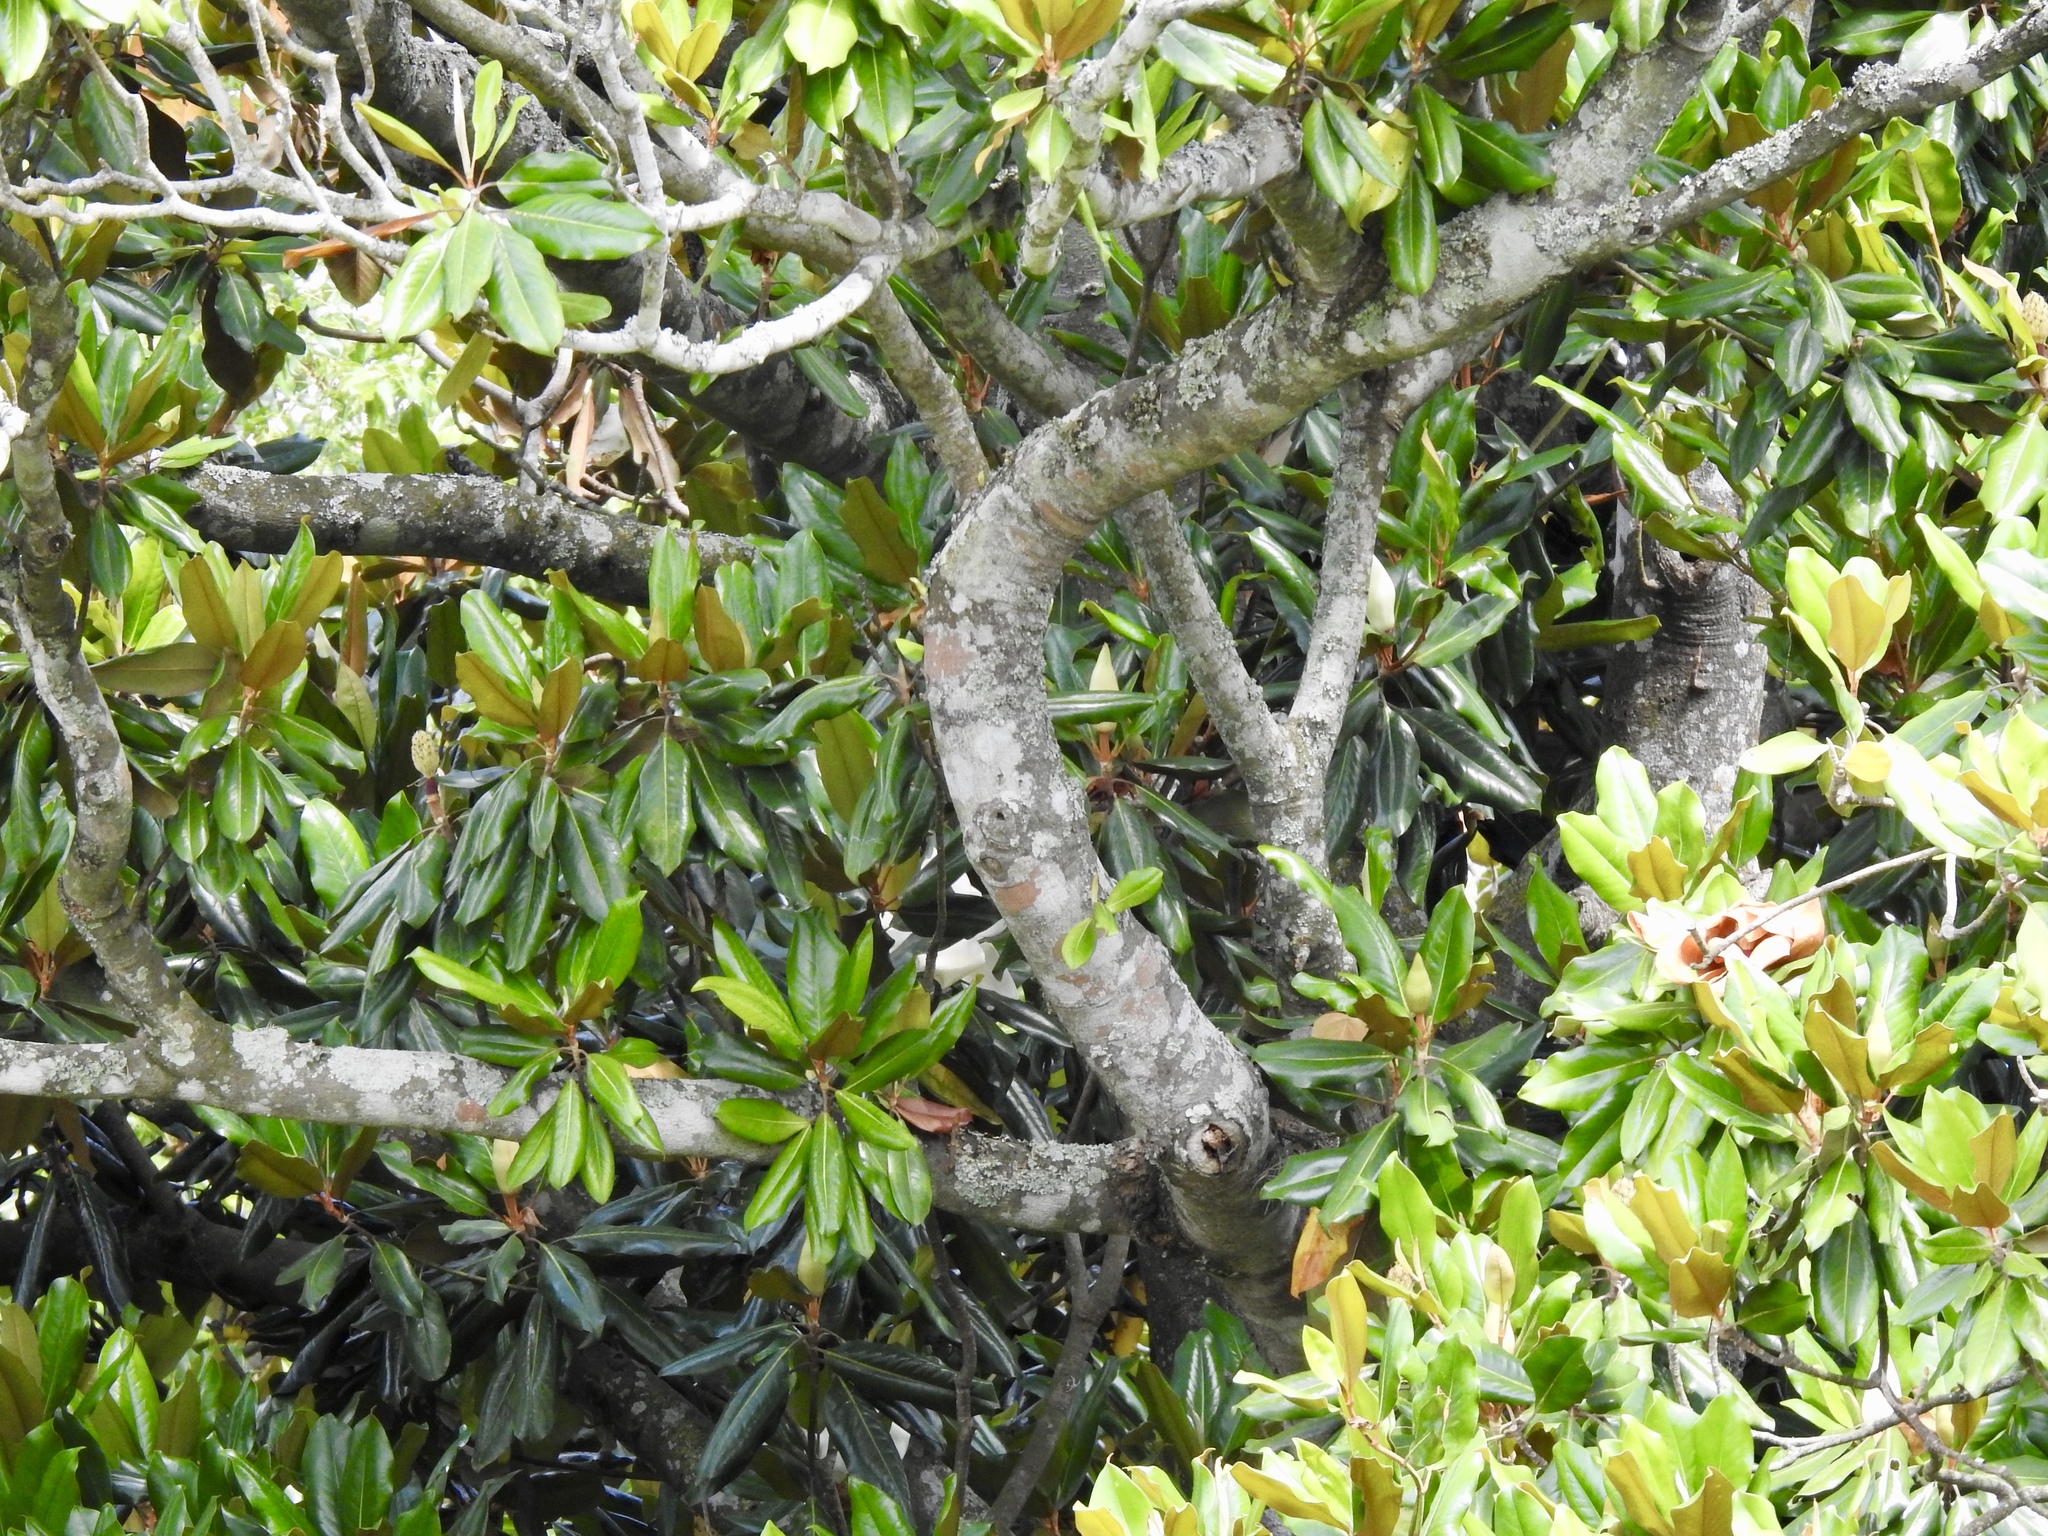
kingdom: Plantae
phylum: Tracheophyta
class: Magnoliopsida
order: Magnoliales
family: Magnoliaceae
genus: Magnolia
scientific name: Magnolia grandiflora
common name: Southern magnolia
